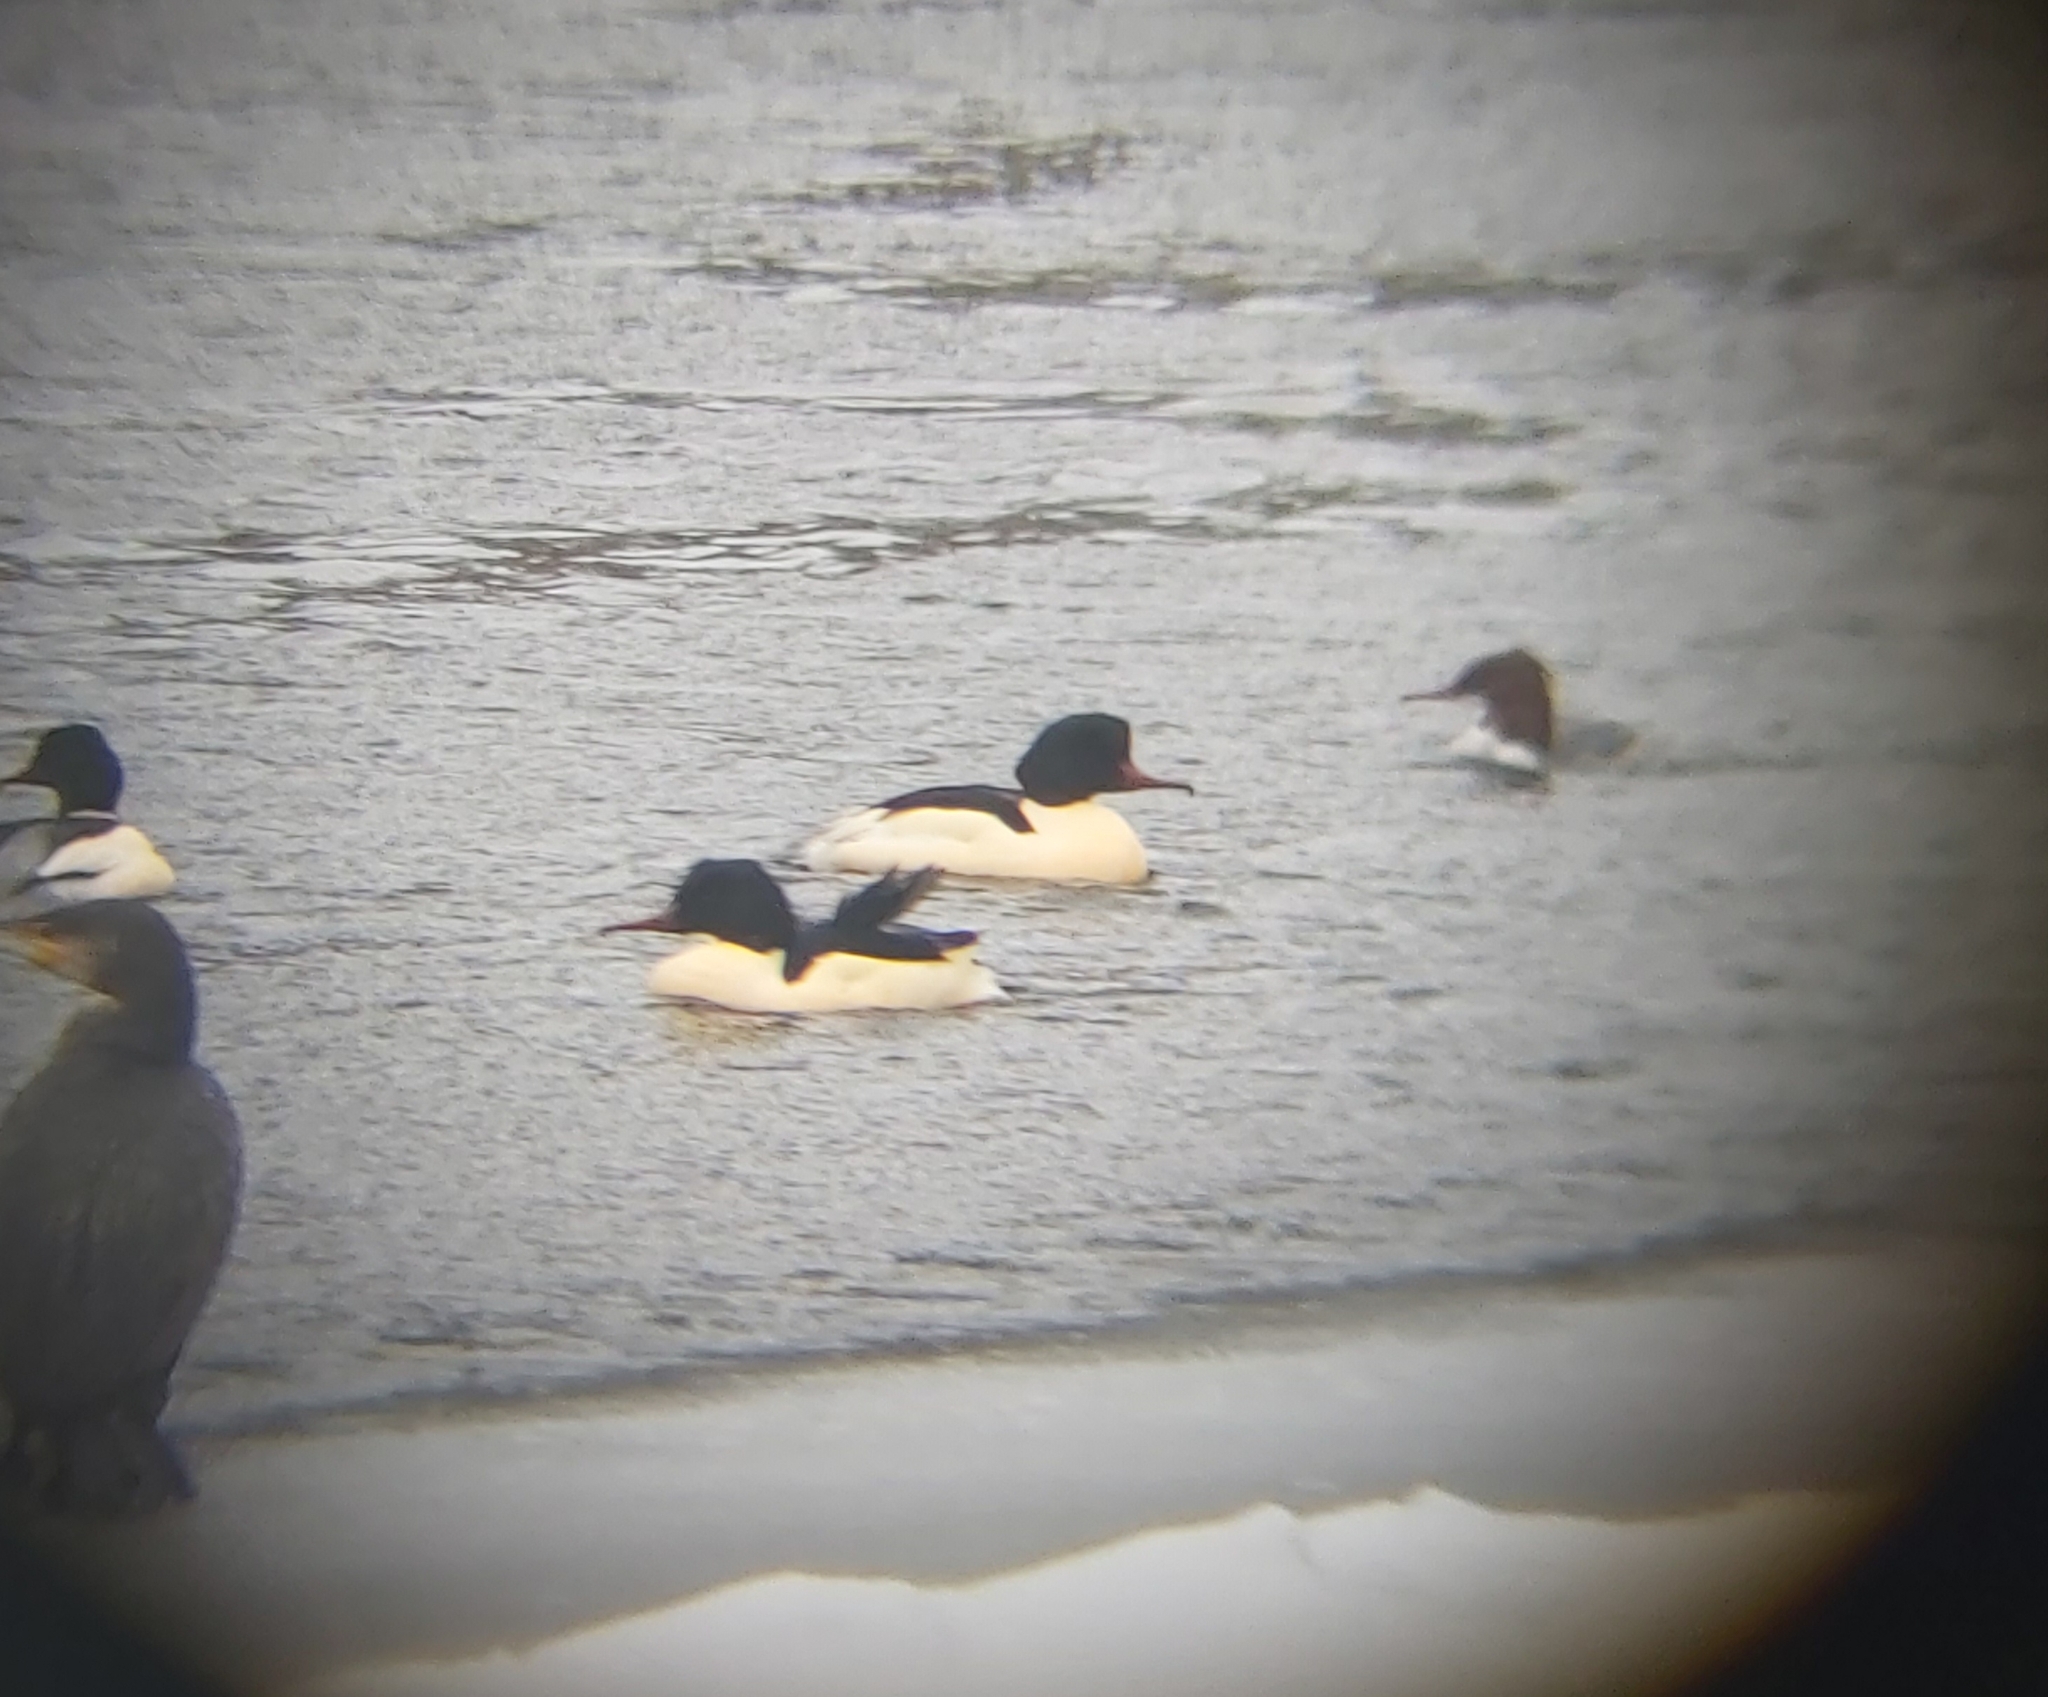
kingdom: Animalia
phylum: Chordata
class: Aves
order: Anseriformes
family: Anatidae
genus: Mergus
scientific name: Mergus merganser
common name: Common merganser
